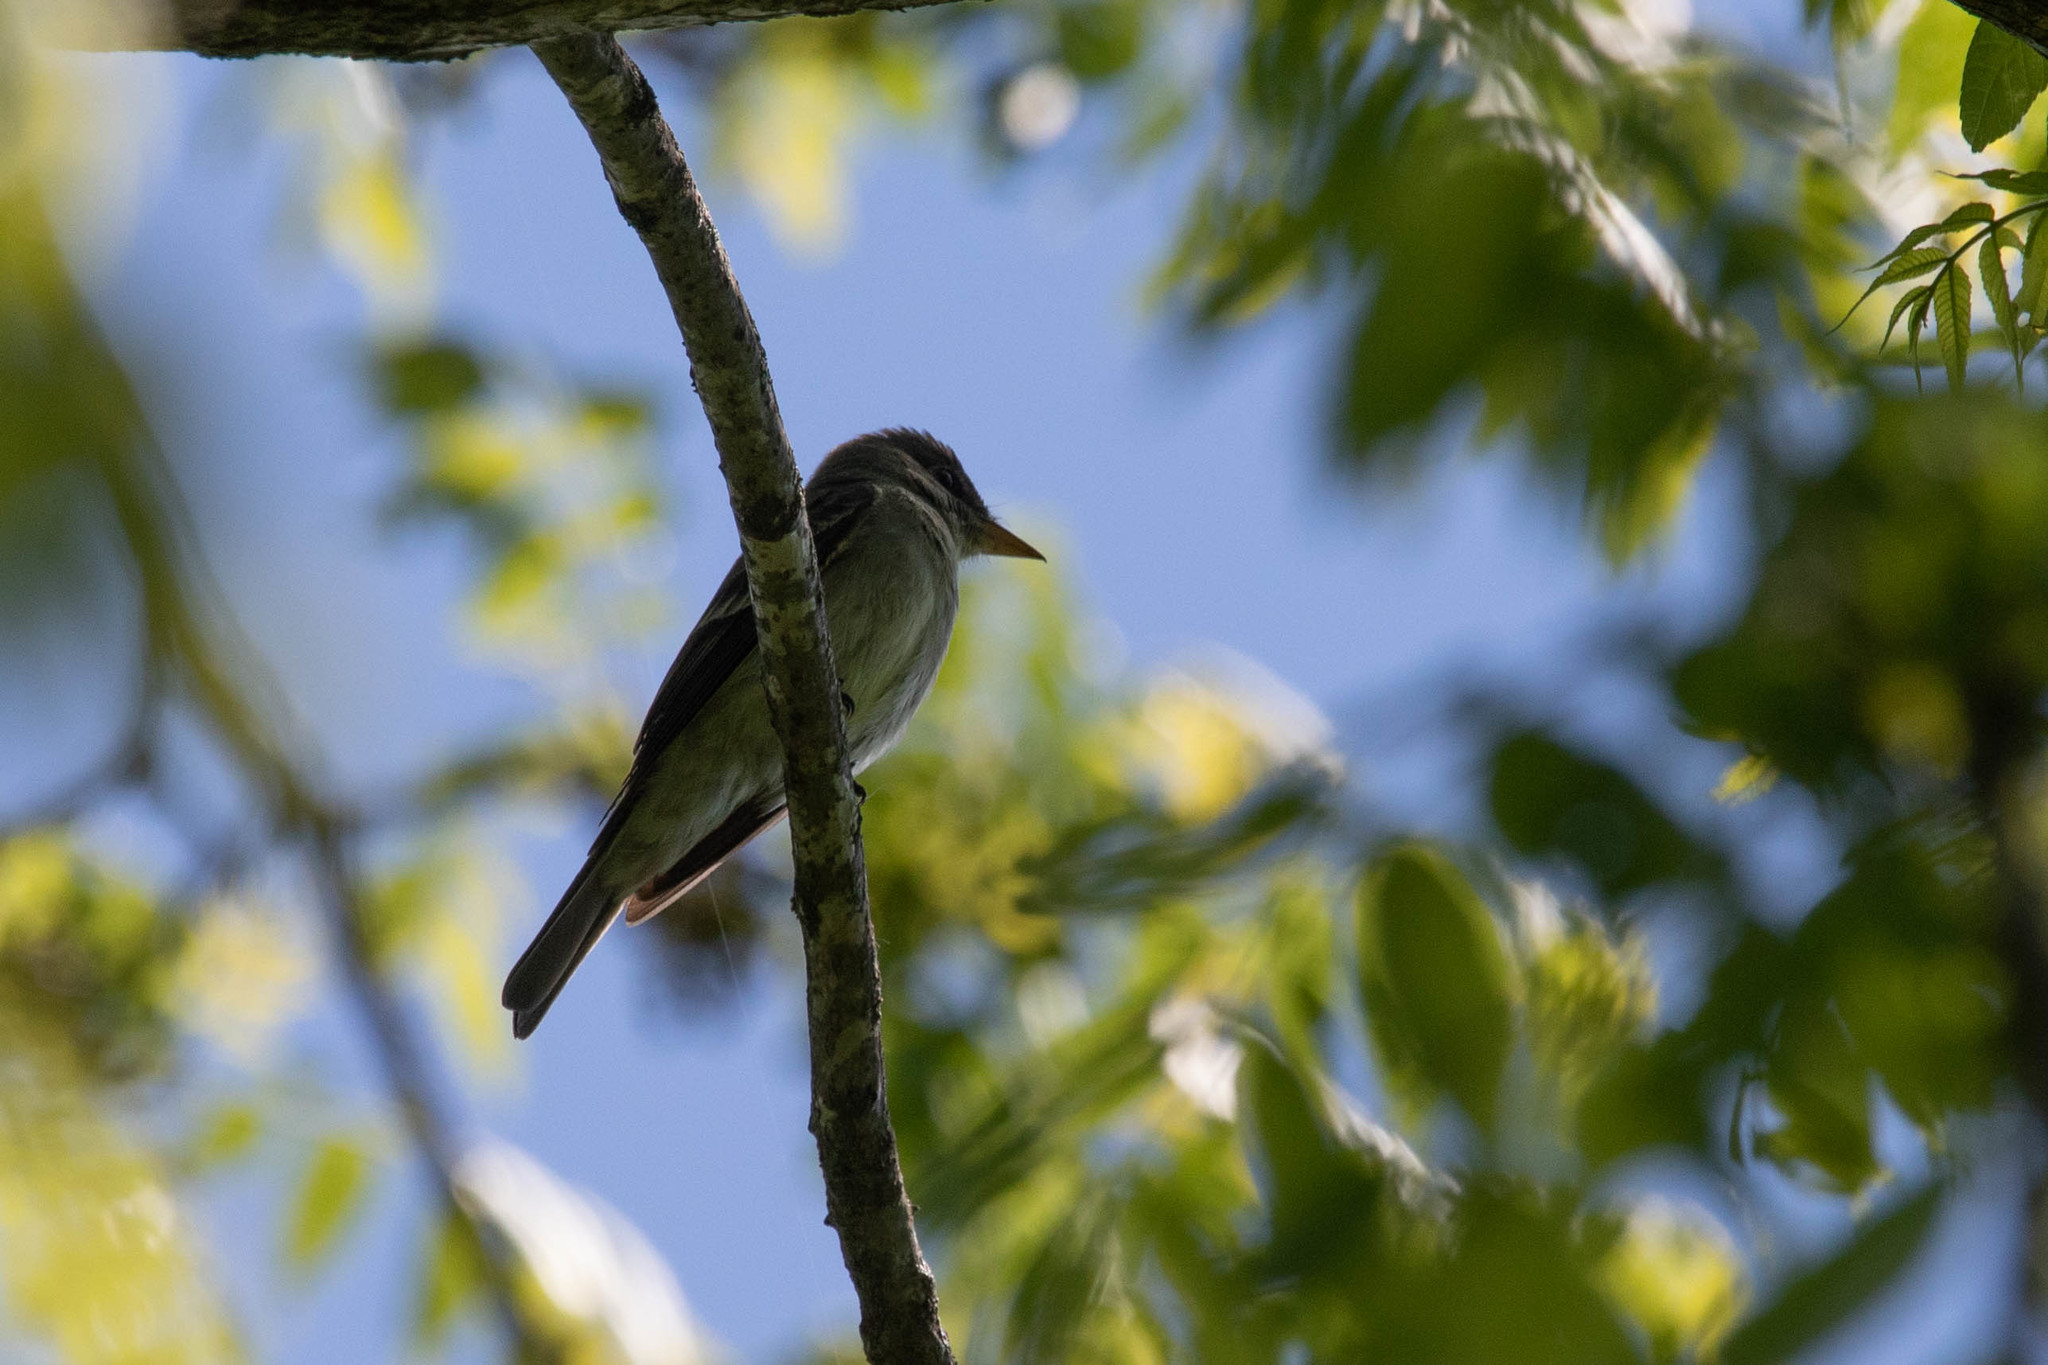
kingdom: Animalia
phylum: Chordata
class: Aves
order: Passeriformes
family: Tyrannidae
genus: Contopus
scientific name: Contopus virens
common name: Eastern wood-pewee
